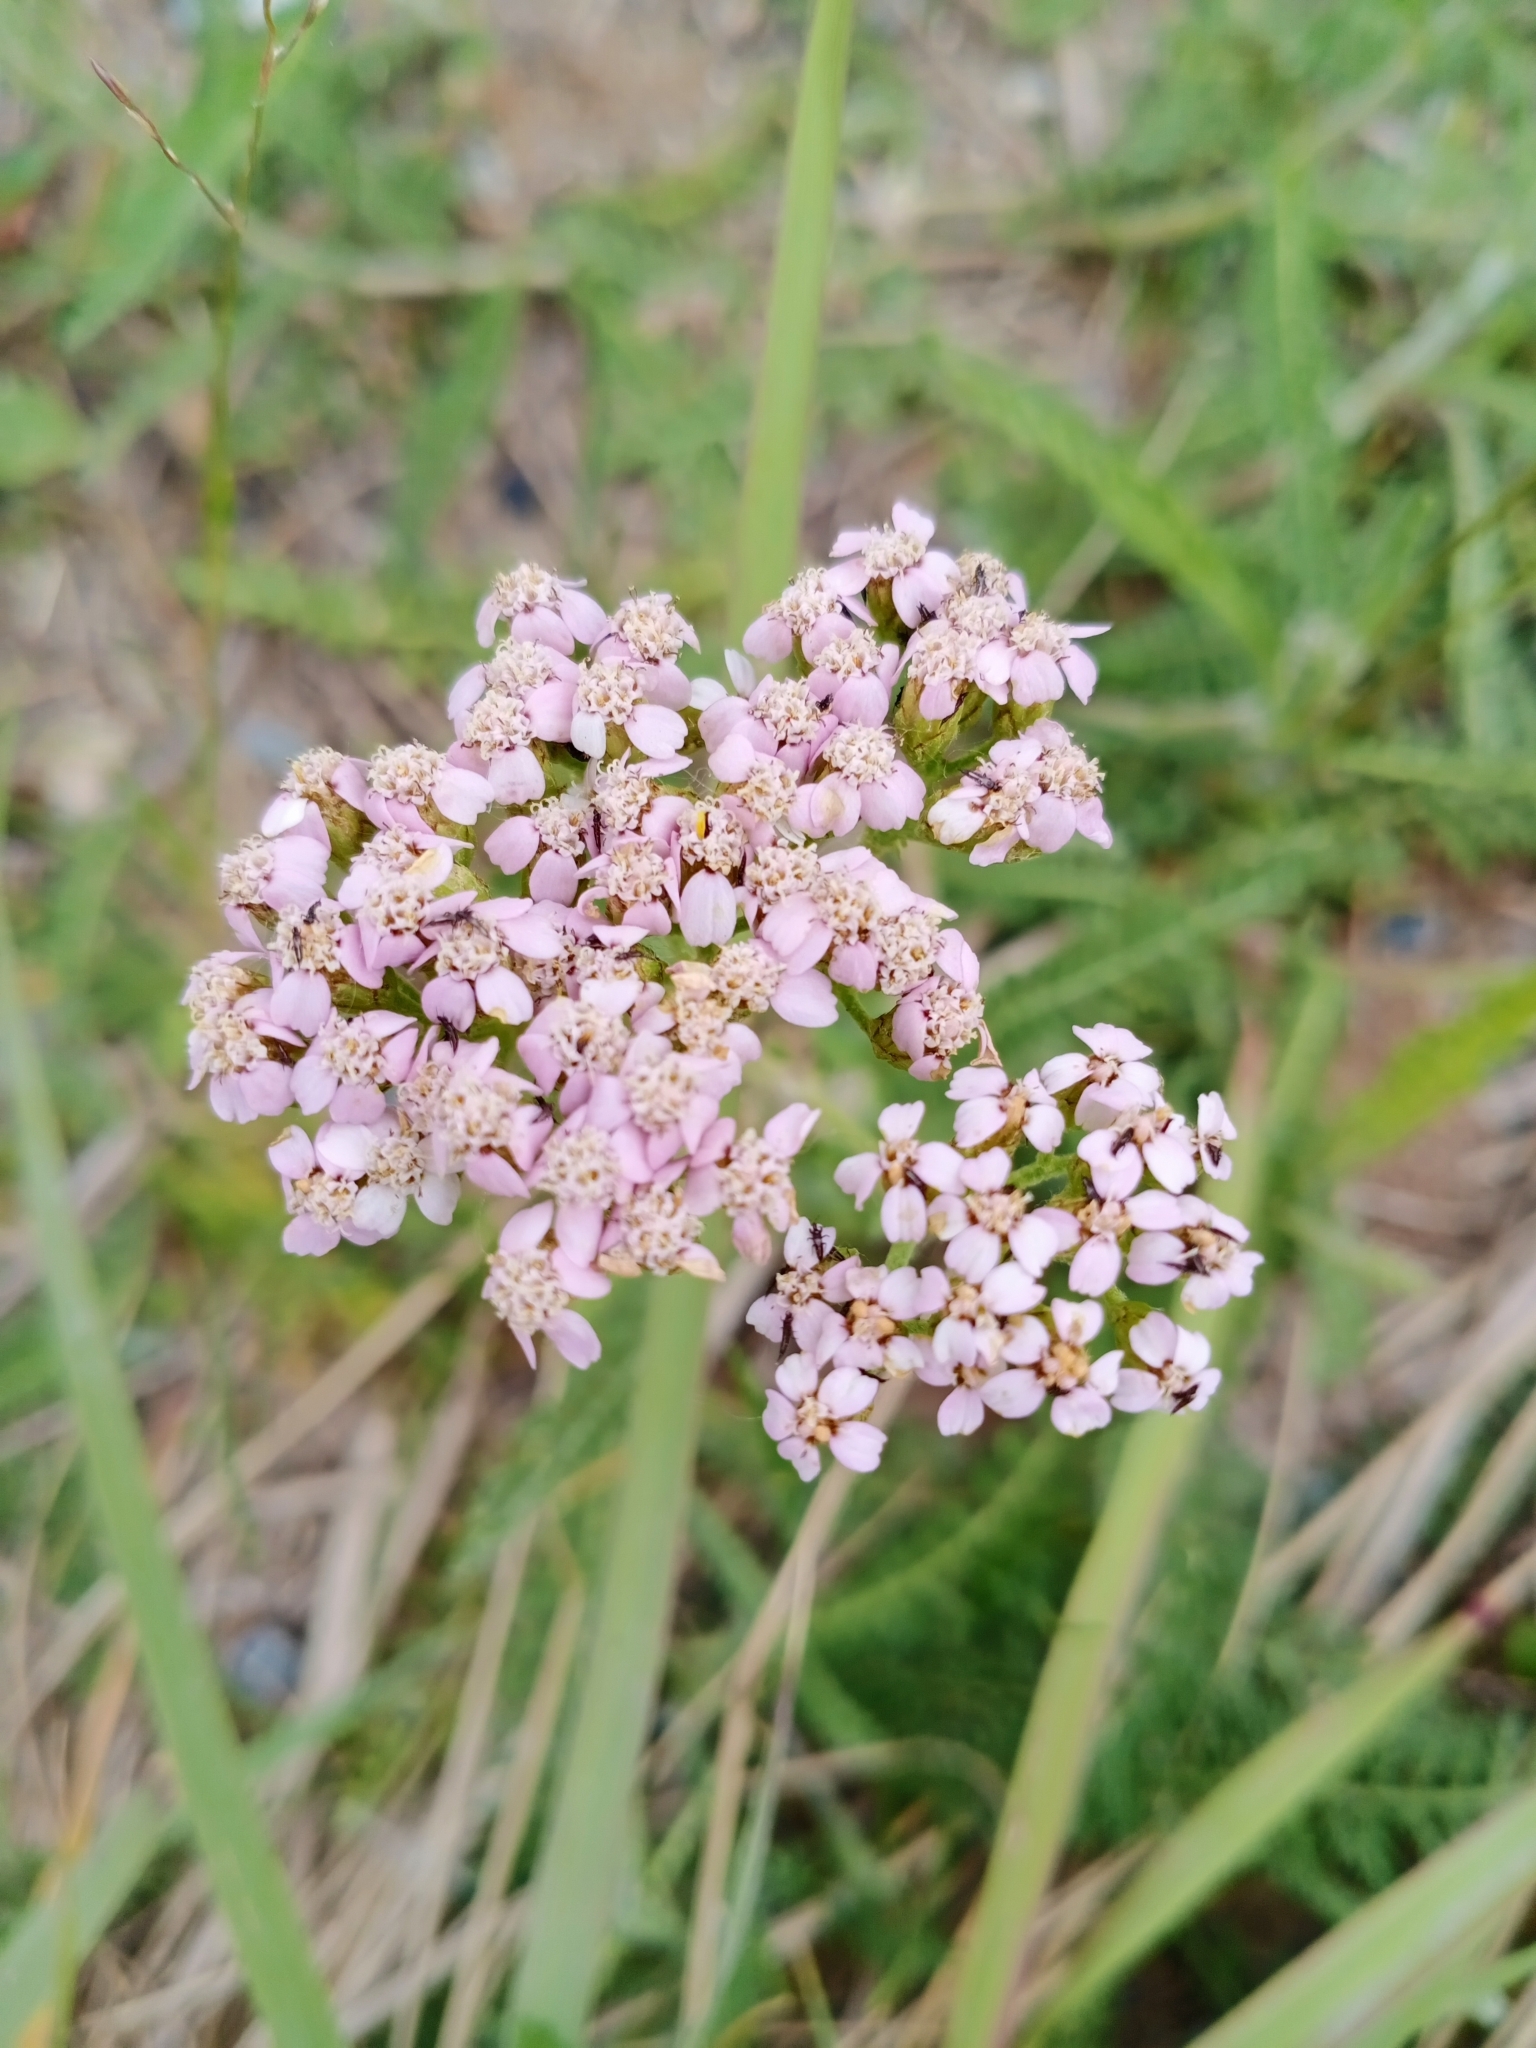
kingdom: Plantae
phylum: Tracheophyta
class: Magnoliopsida
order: Asterales
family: Asteraceae
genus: Achillea
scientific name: Achillea millefolium
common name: Yarrow
